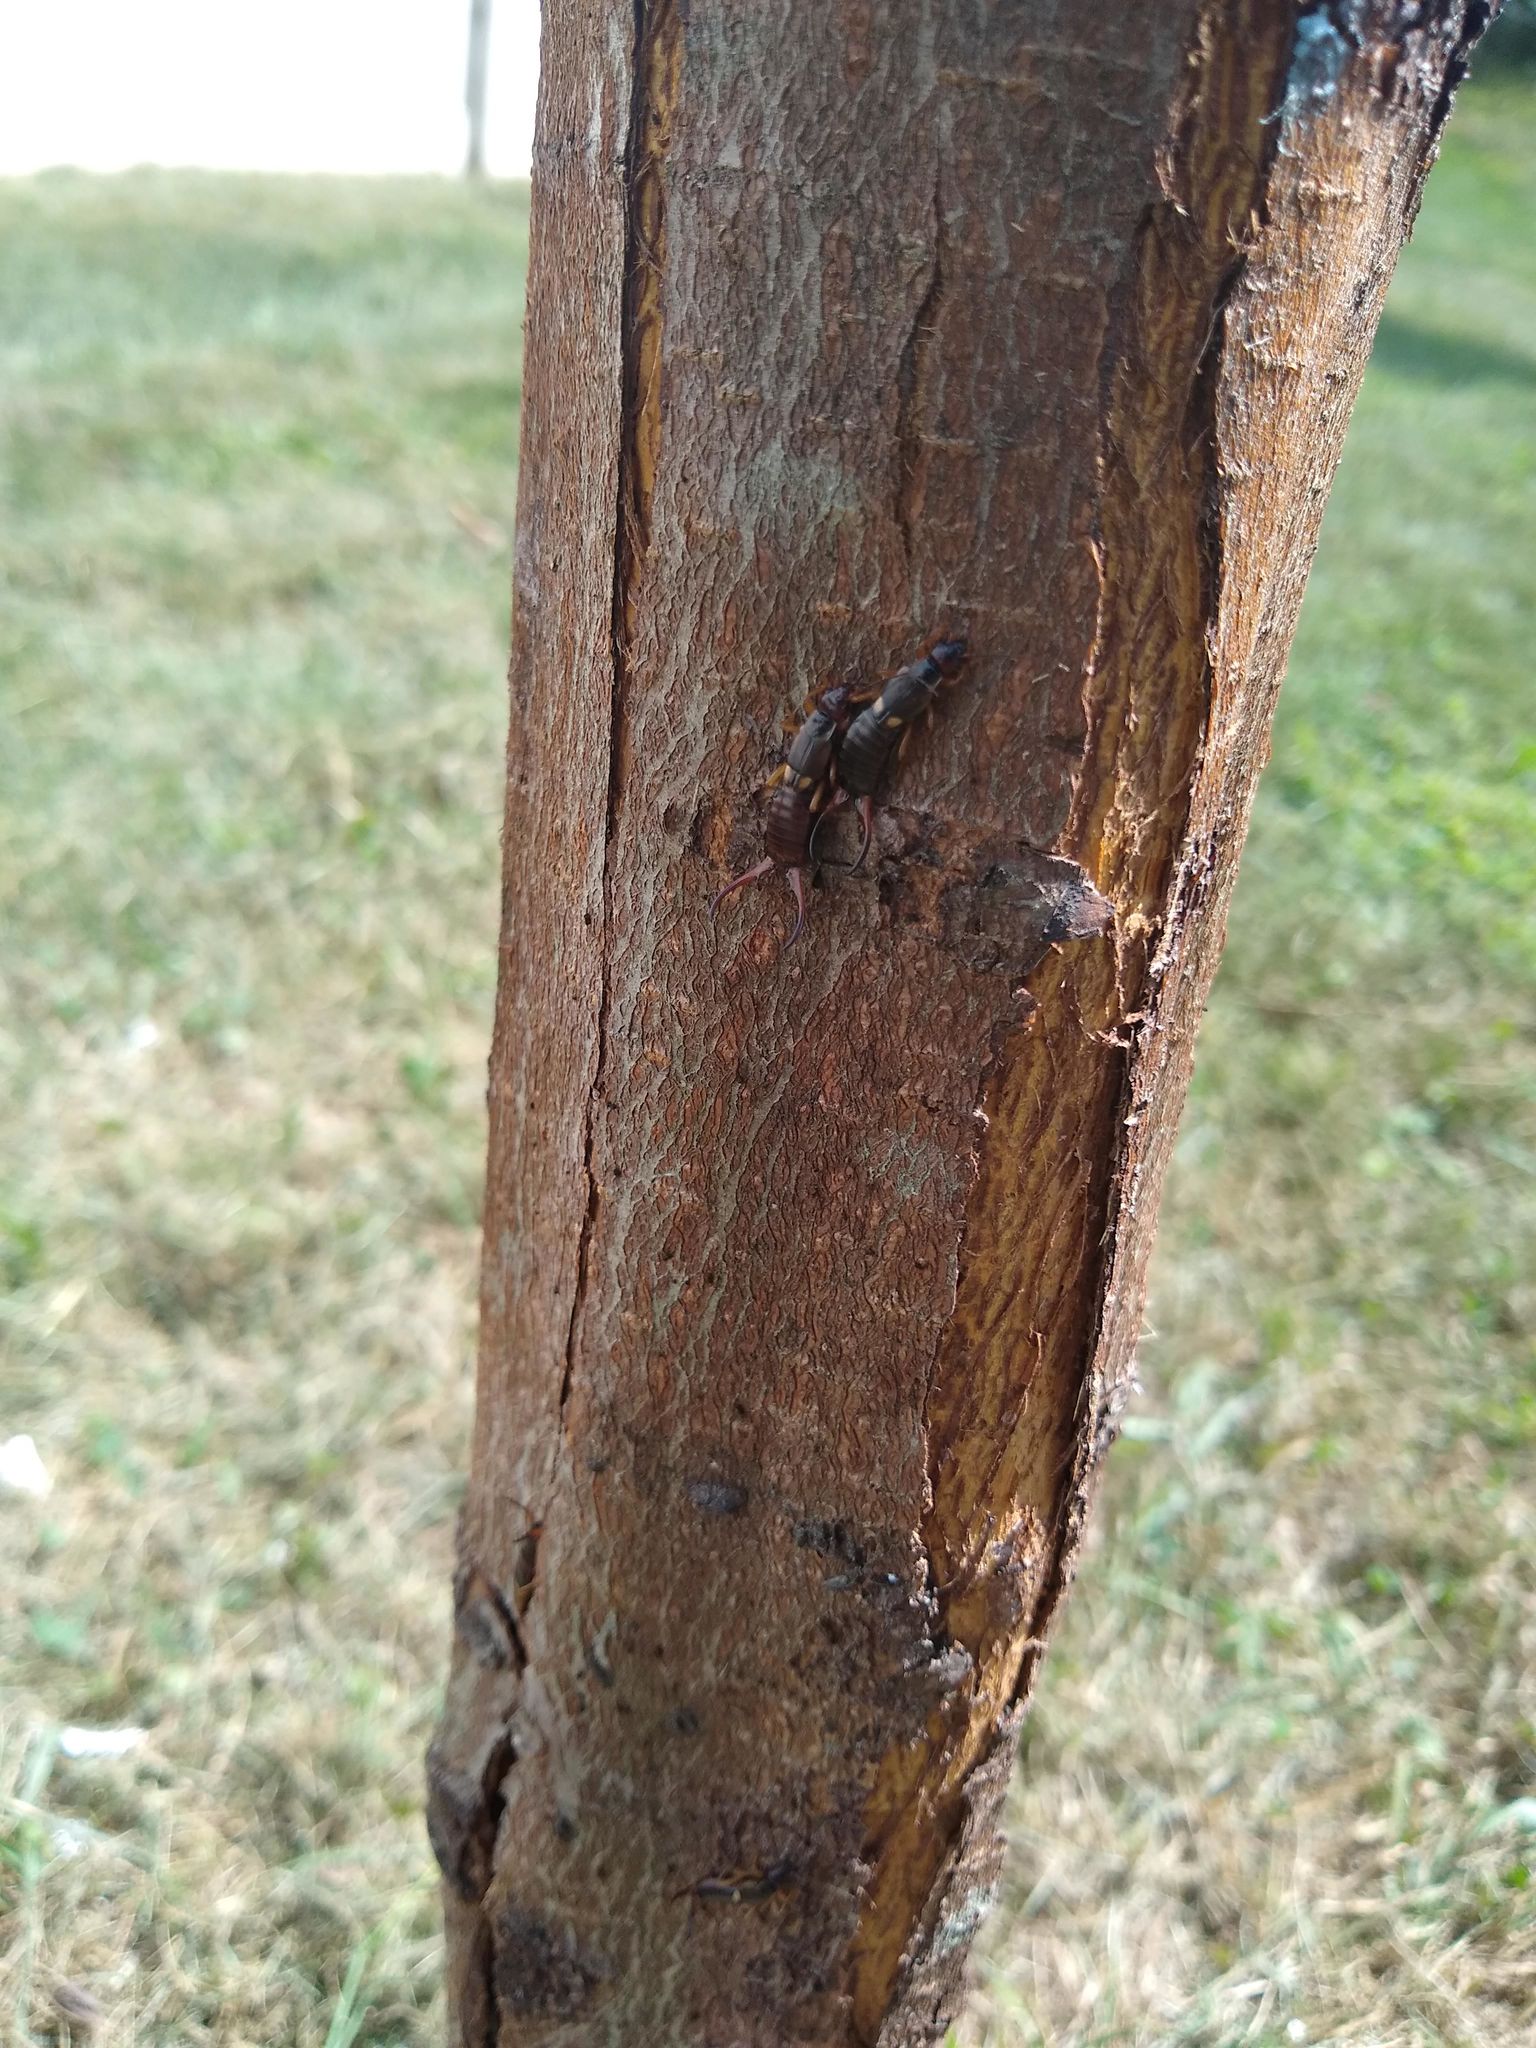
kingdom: Animalia
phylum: Arthropoda
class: Insecta
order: Dermaptera
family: Forficulidae
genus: Forficula
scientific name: Forficula
